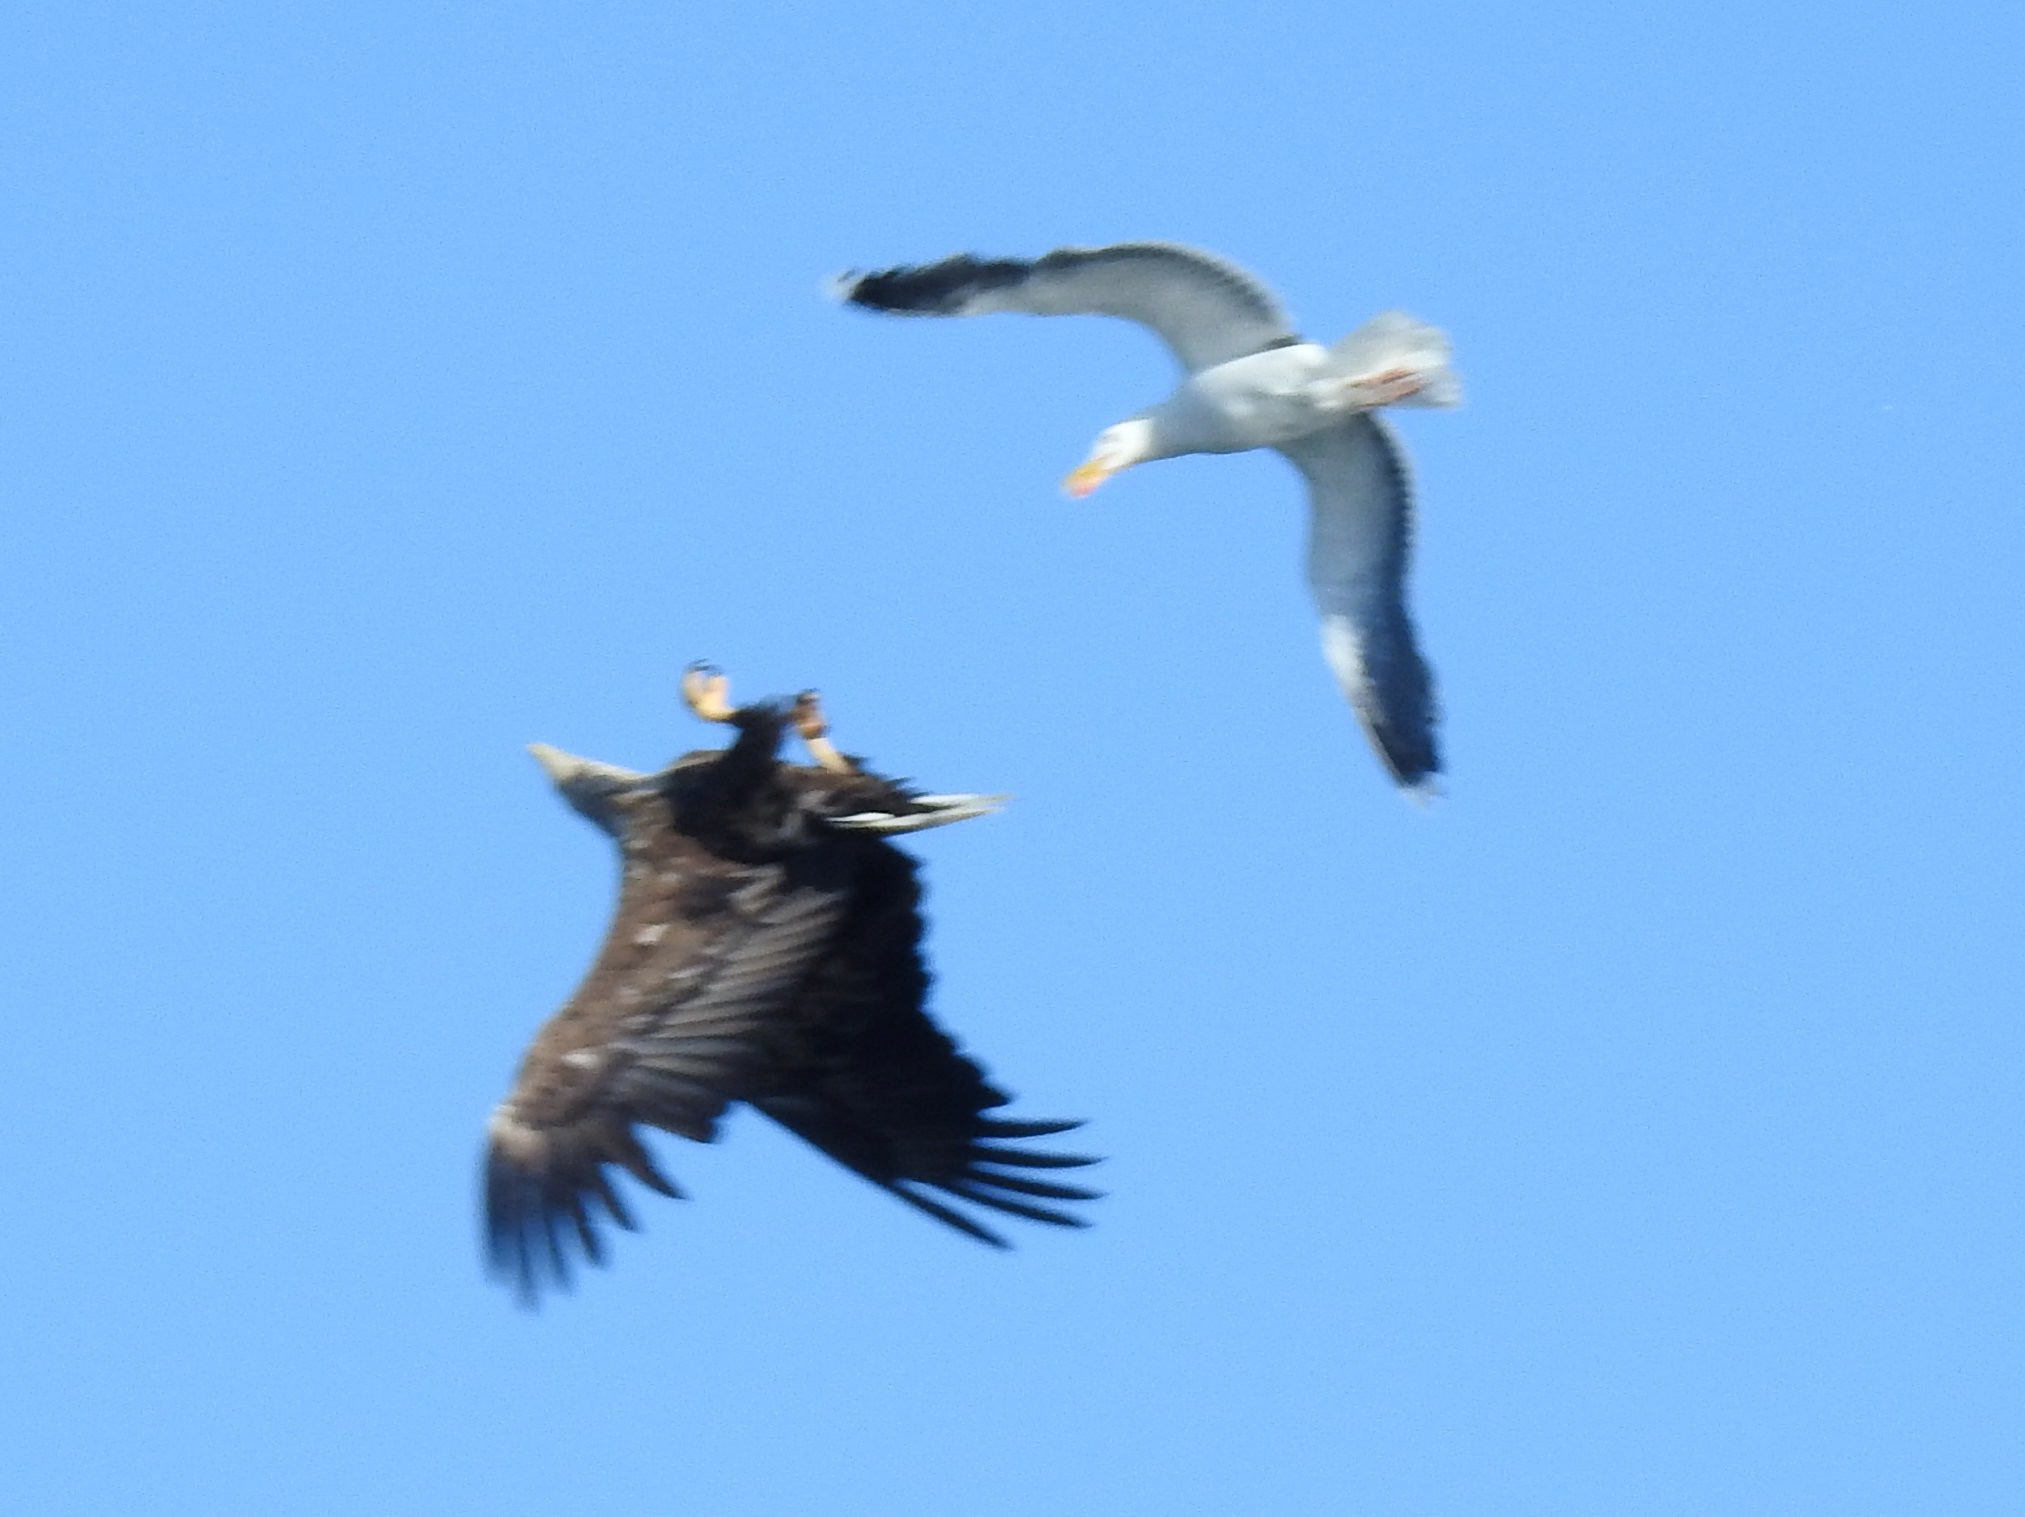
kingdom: Animalia
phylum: Chordata
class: Aves
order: Charadriiformes
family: Laridae
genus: Larus
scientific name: Larus marinus
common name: Great black-backed gull
